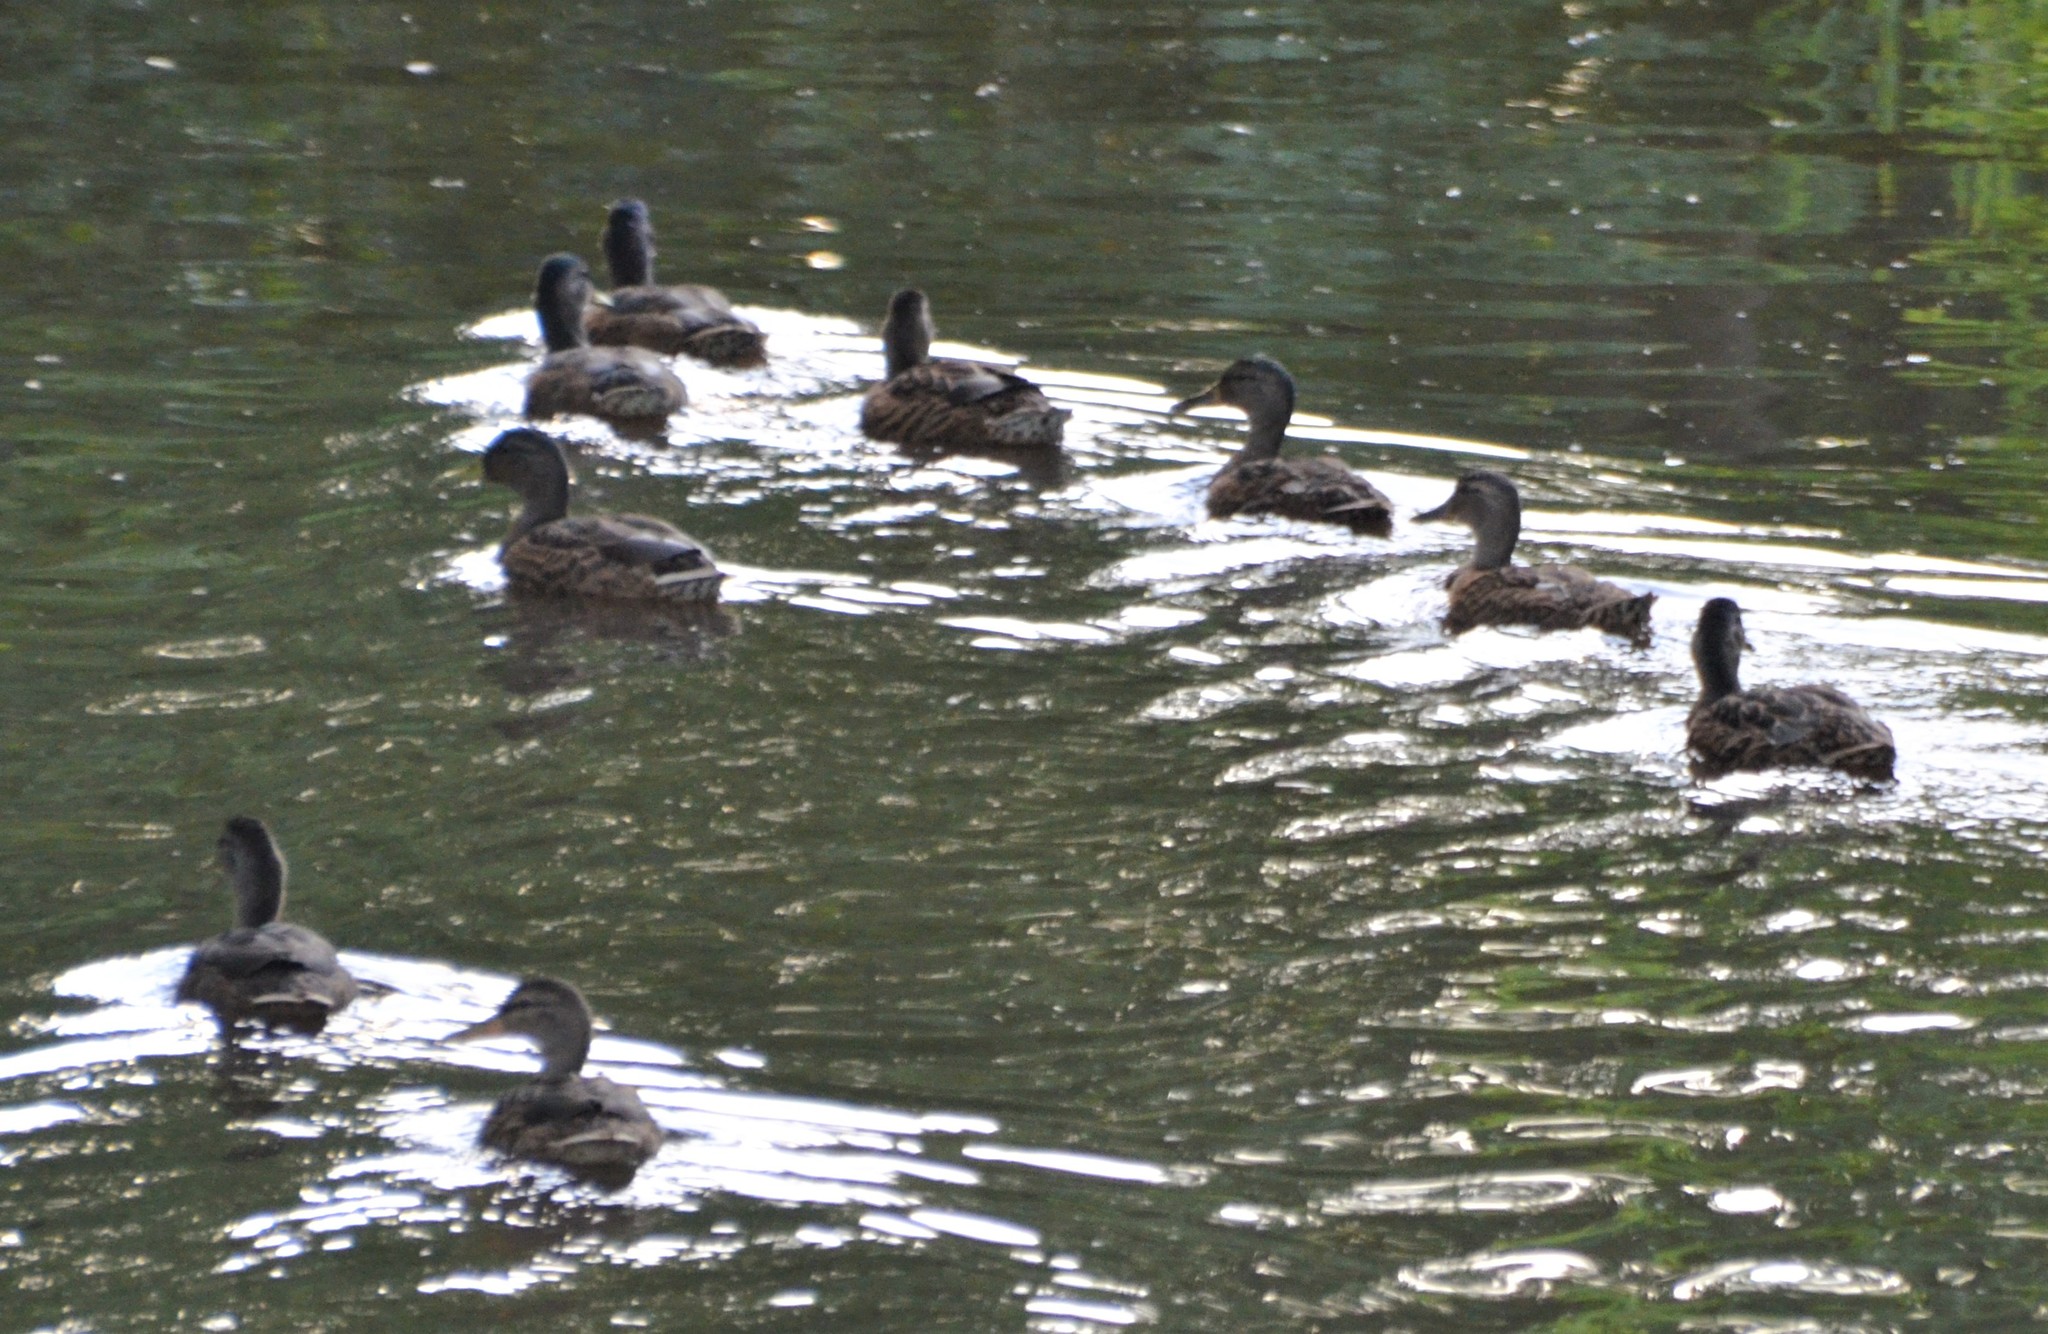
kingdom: Animalia
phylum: Chordata
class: Aves
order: Anseriformes
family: Anatidae
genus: Anas
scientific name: Anas platyrhynchos
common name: Mallard
